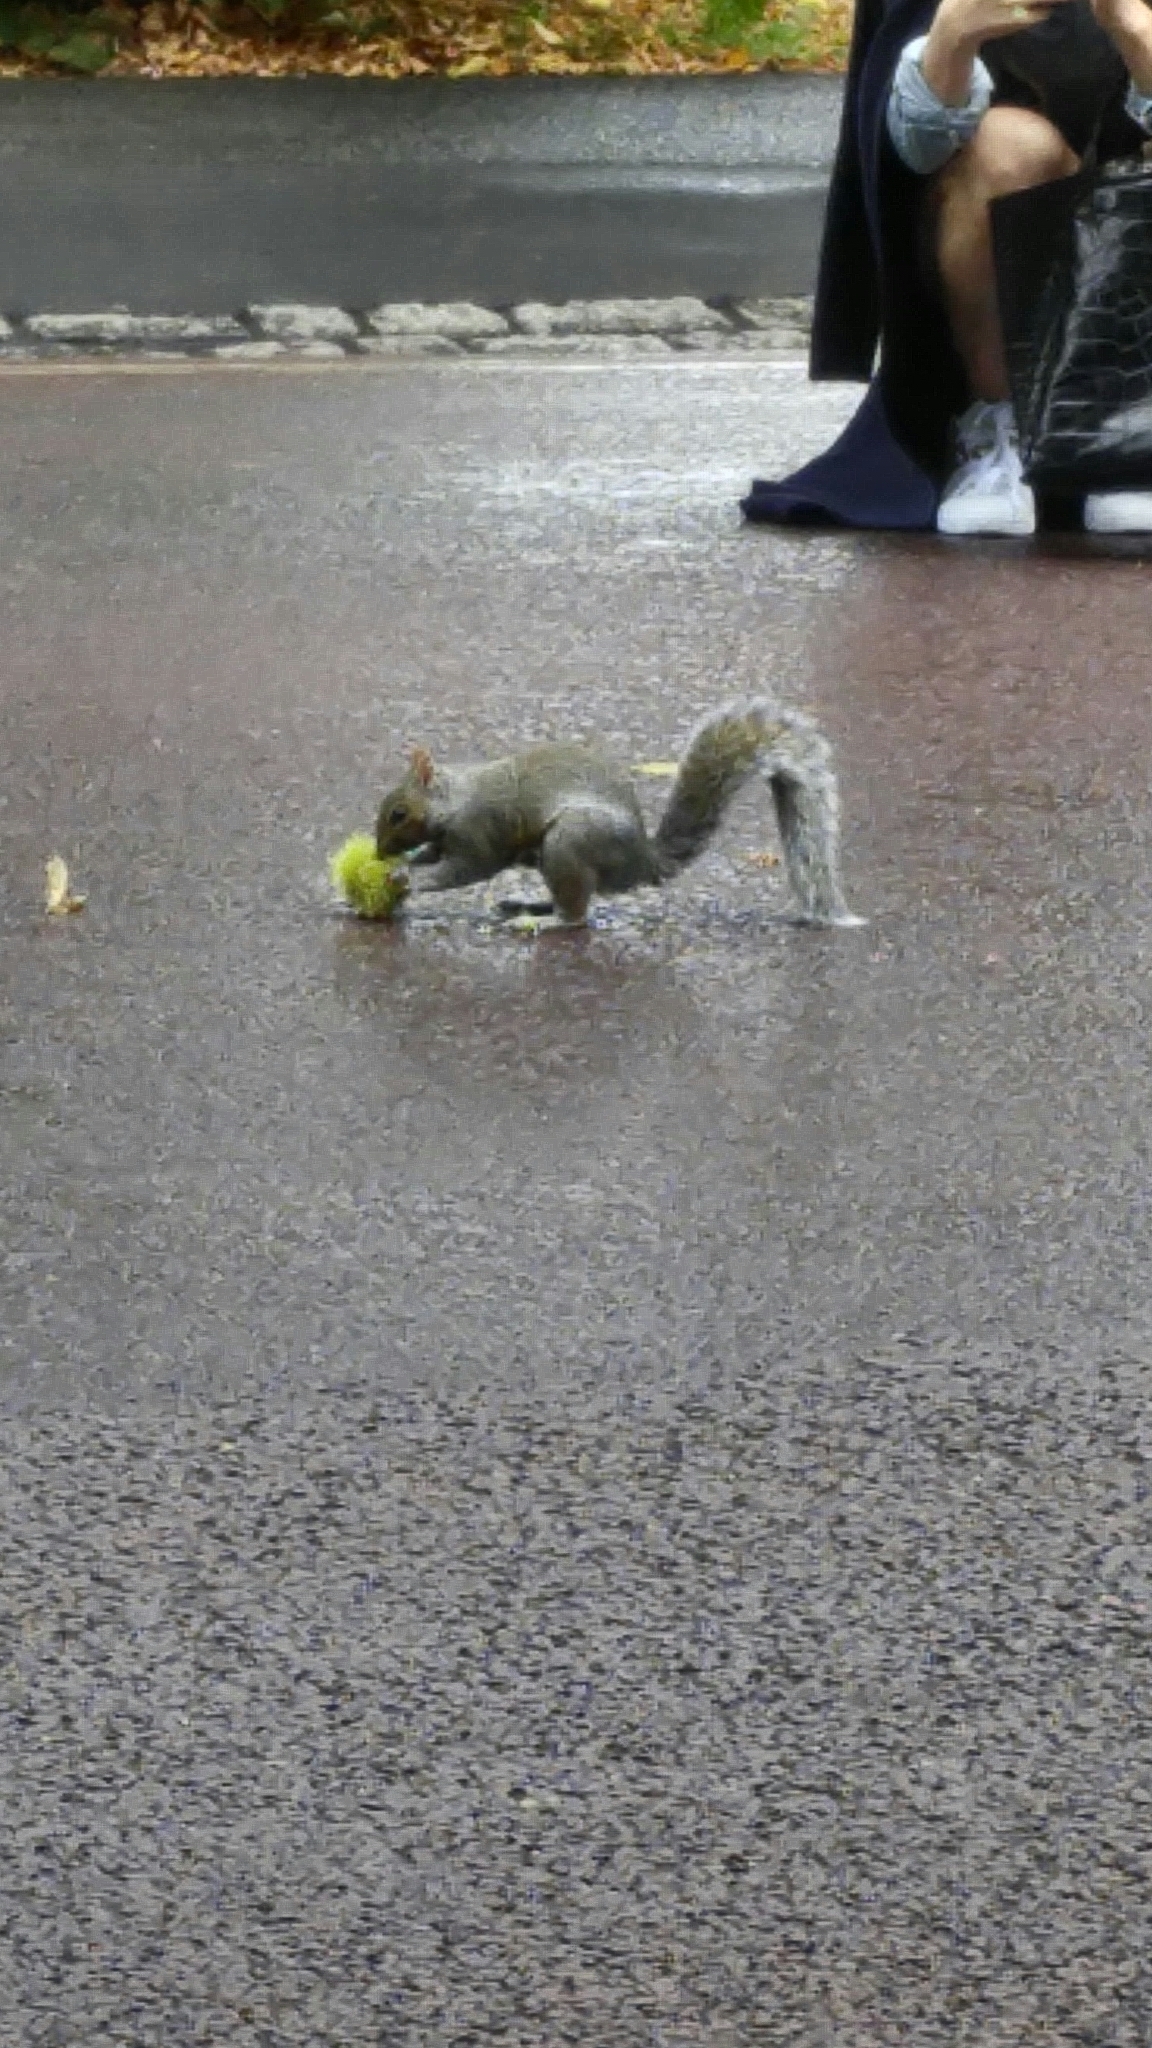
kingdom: Animalia
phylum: Chordata
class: Mammalia
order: Rodentia
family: Sciuridae
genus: Sciurus
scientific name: Sciurus carolinensis
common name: Eastern gray squirrel
